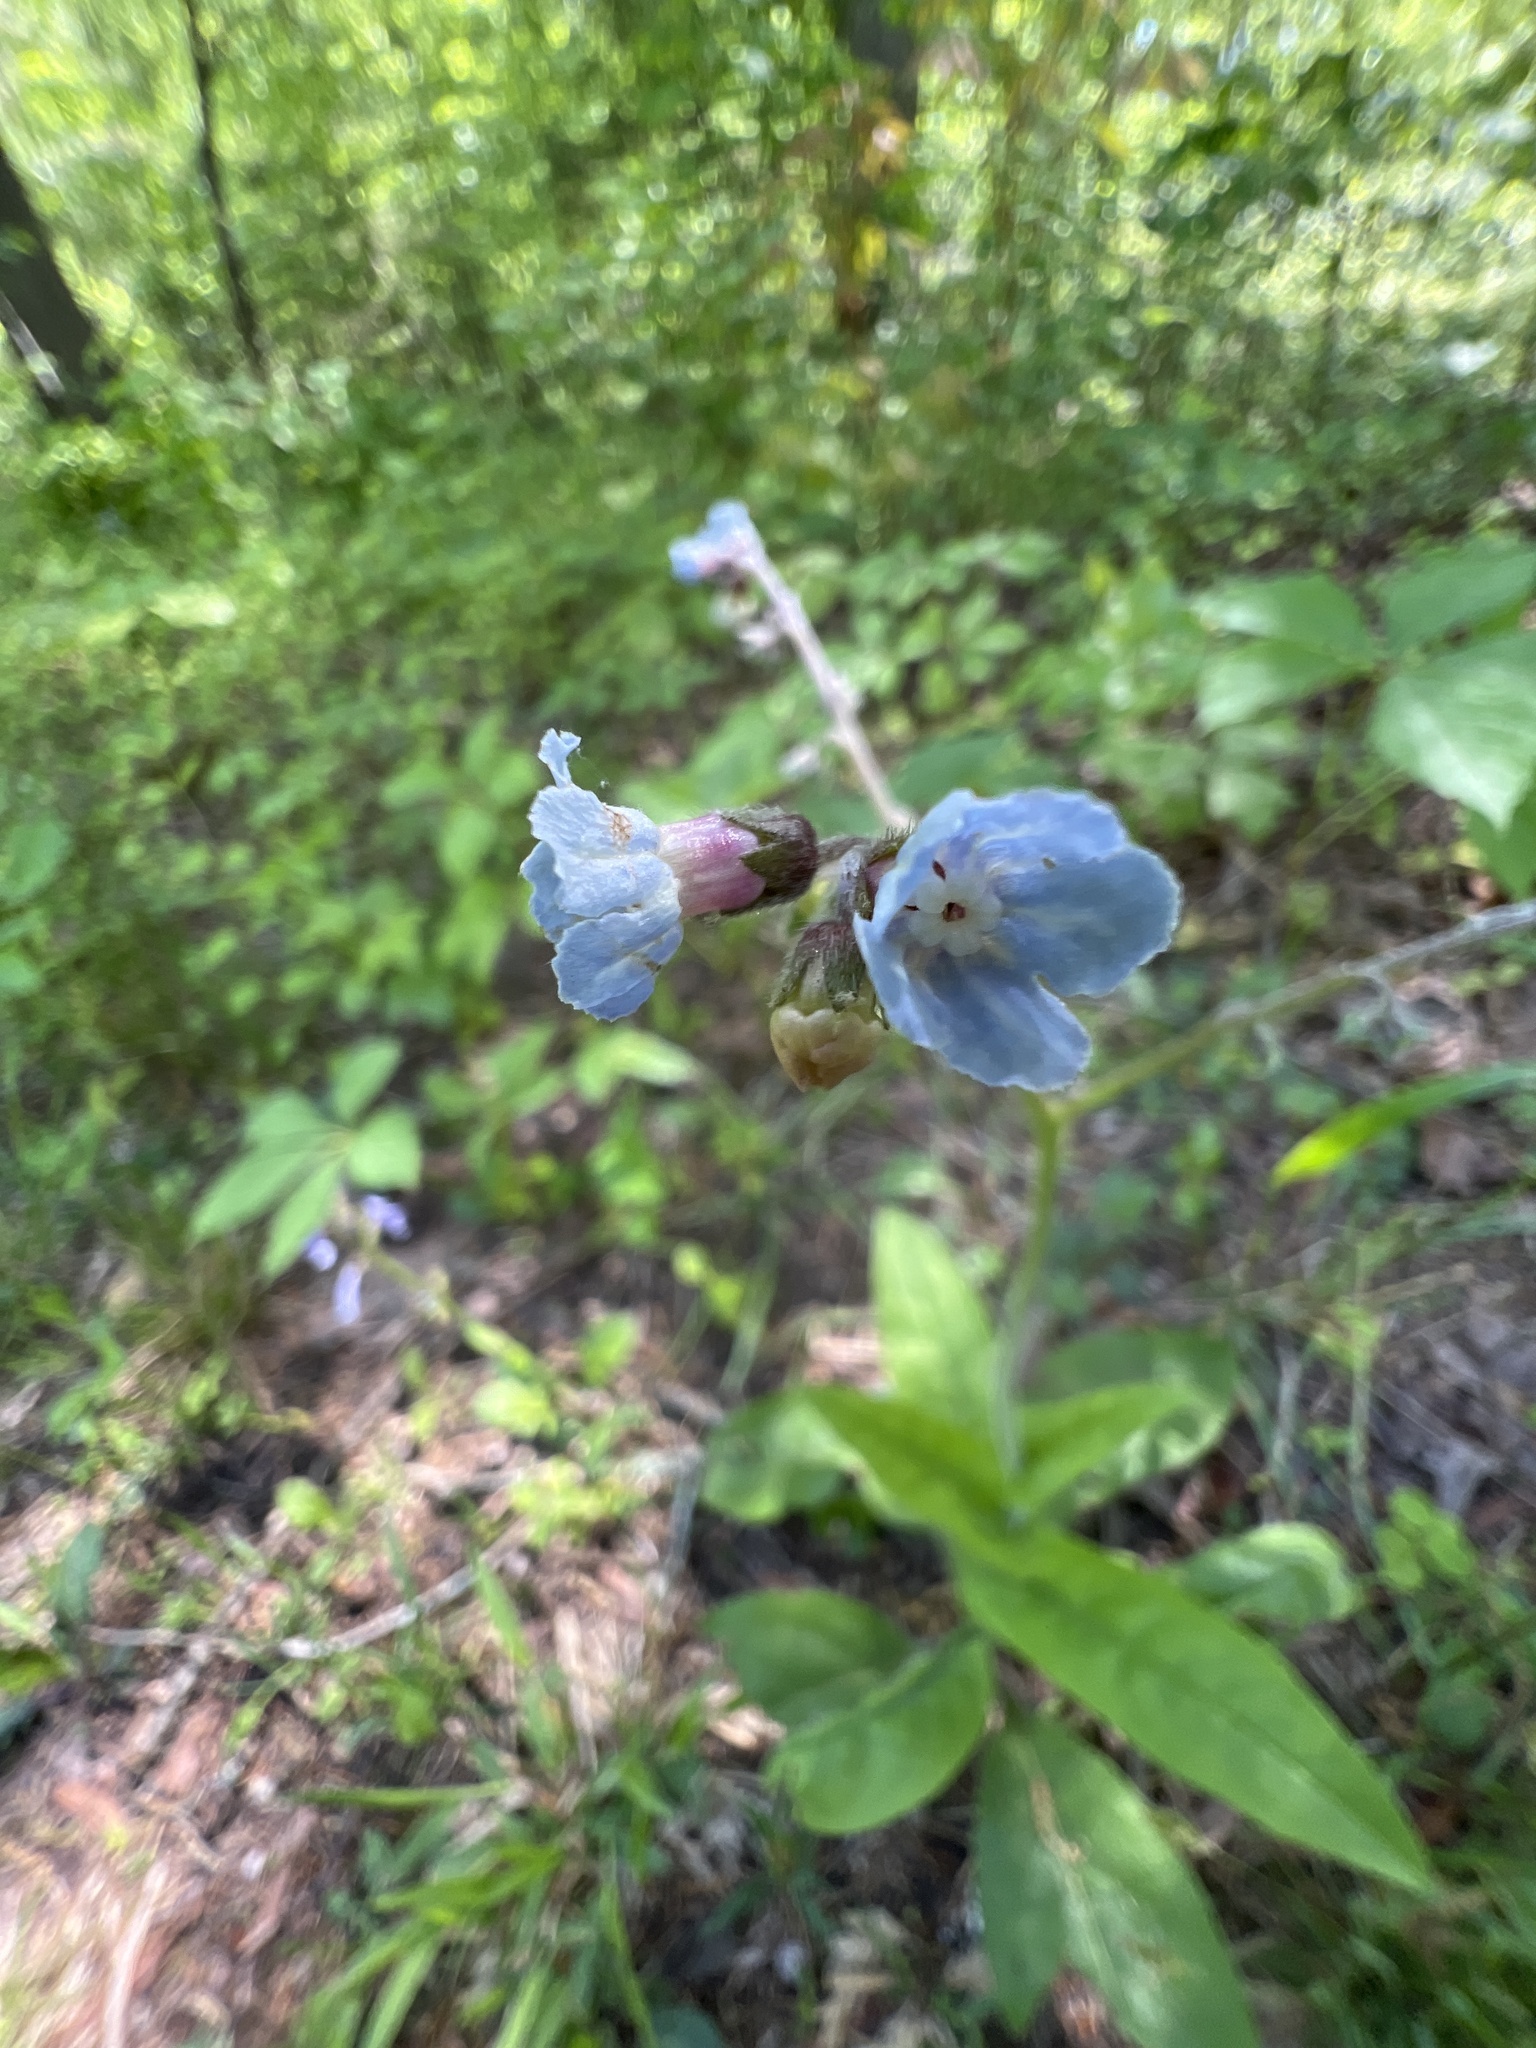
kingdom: Plantae
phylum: Tracheophyta
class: Magnoliopsida
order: Boraginales
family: Boraginaceae
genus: Andersonglossum
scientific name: Andersonglossum virginianum
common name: Wild comfrey
